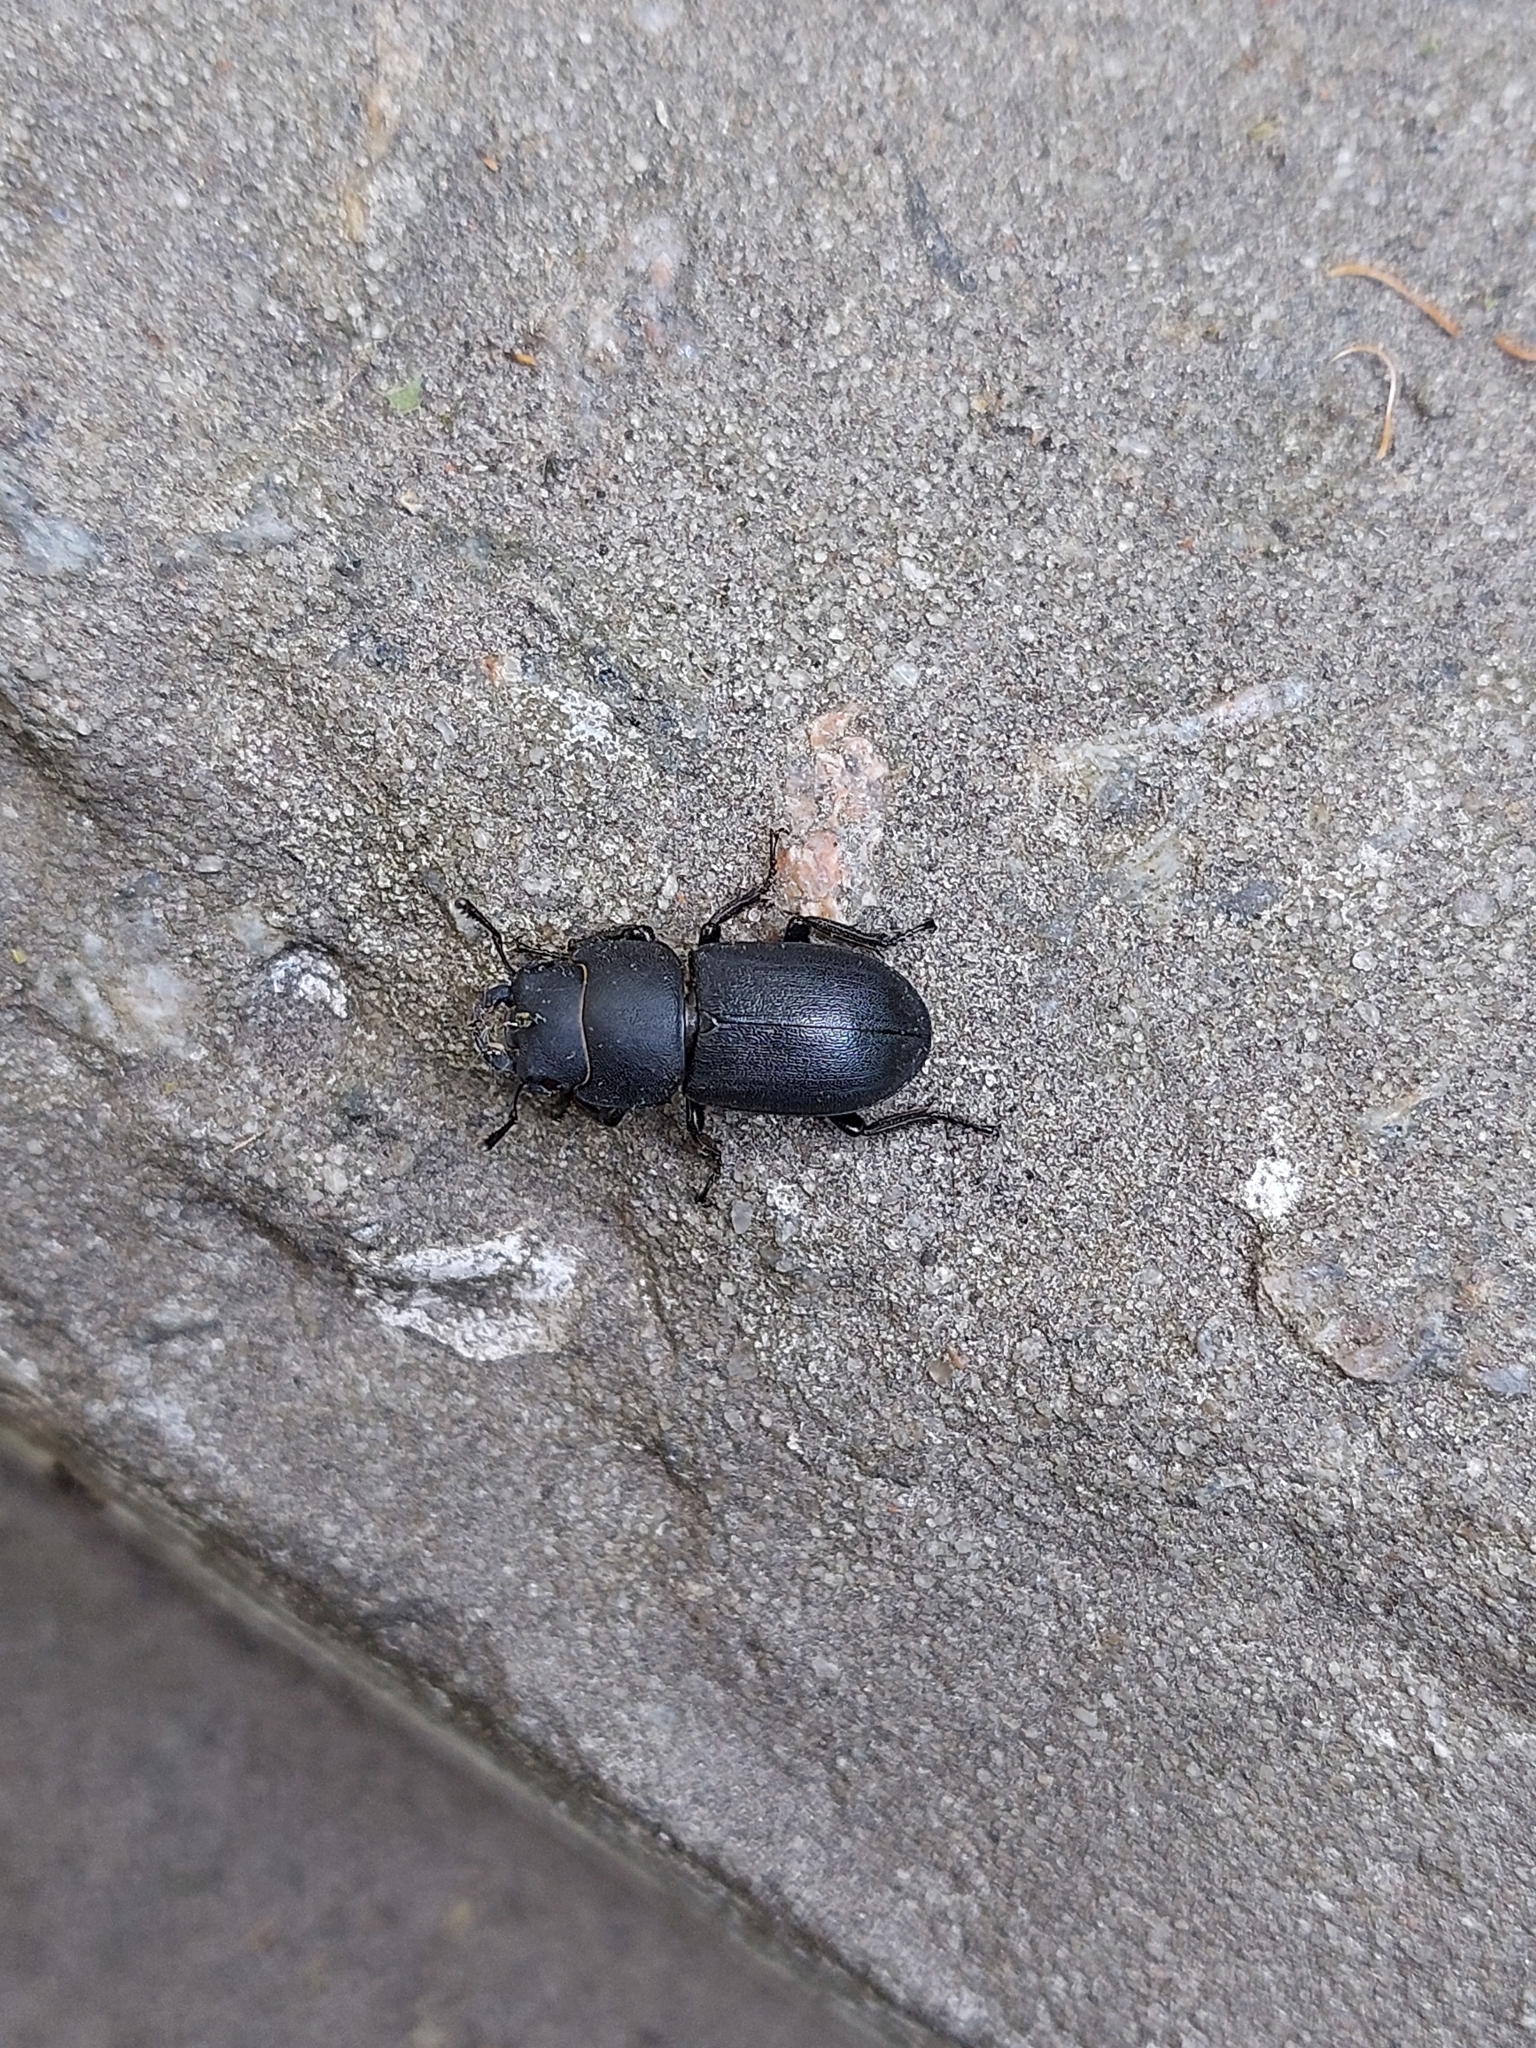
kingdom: Animalia
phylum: Arthropoda
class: Insecta
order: Coleoptera
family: Lucanidae
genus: Dorcus
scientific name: Dorcus parallelipipedus
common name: Lesser stag beetle
